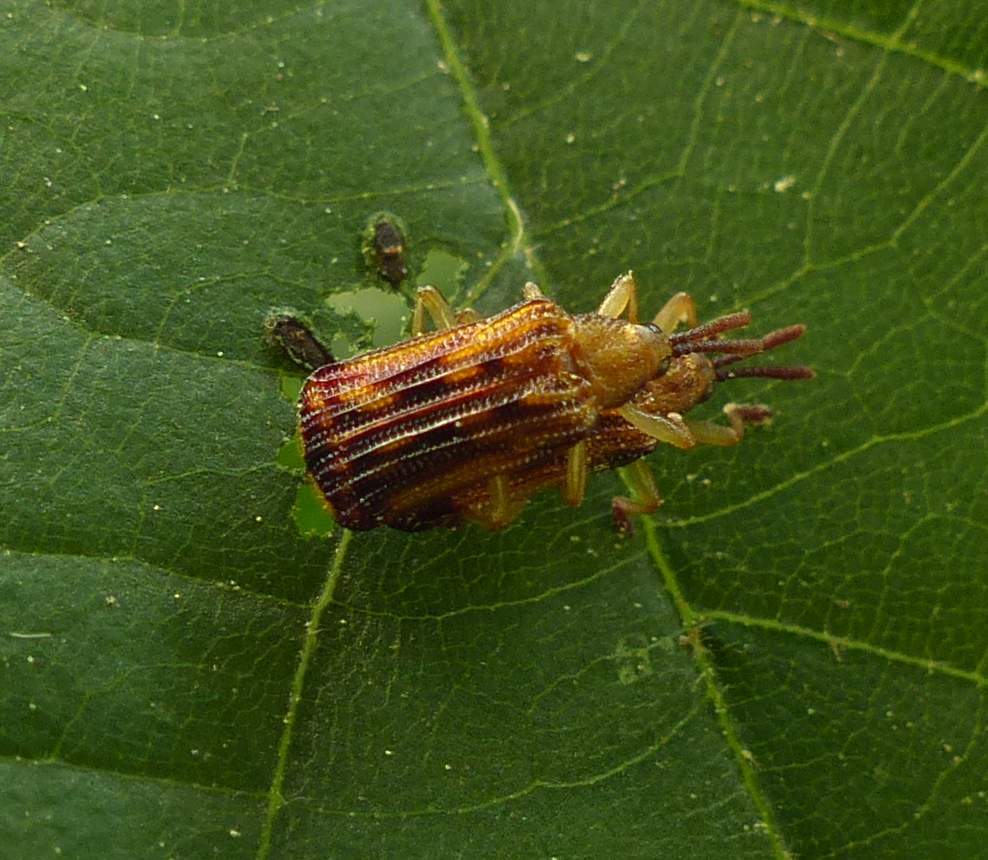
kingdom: Animalia
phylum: Arthropoda
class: Insecta
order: Coleoptera
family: Chrysomelidae
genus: Baliosus
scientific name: Baliosus nervosus
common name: Basswood leaf miner
